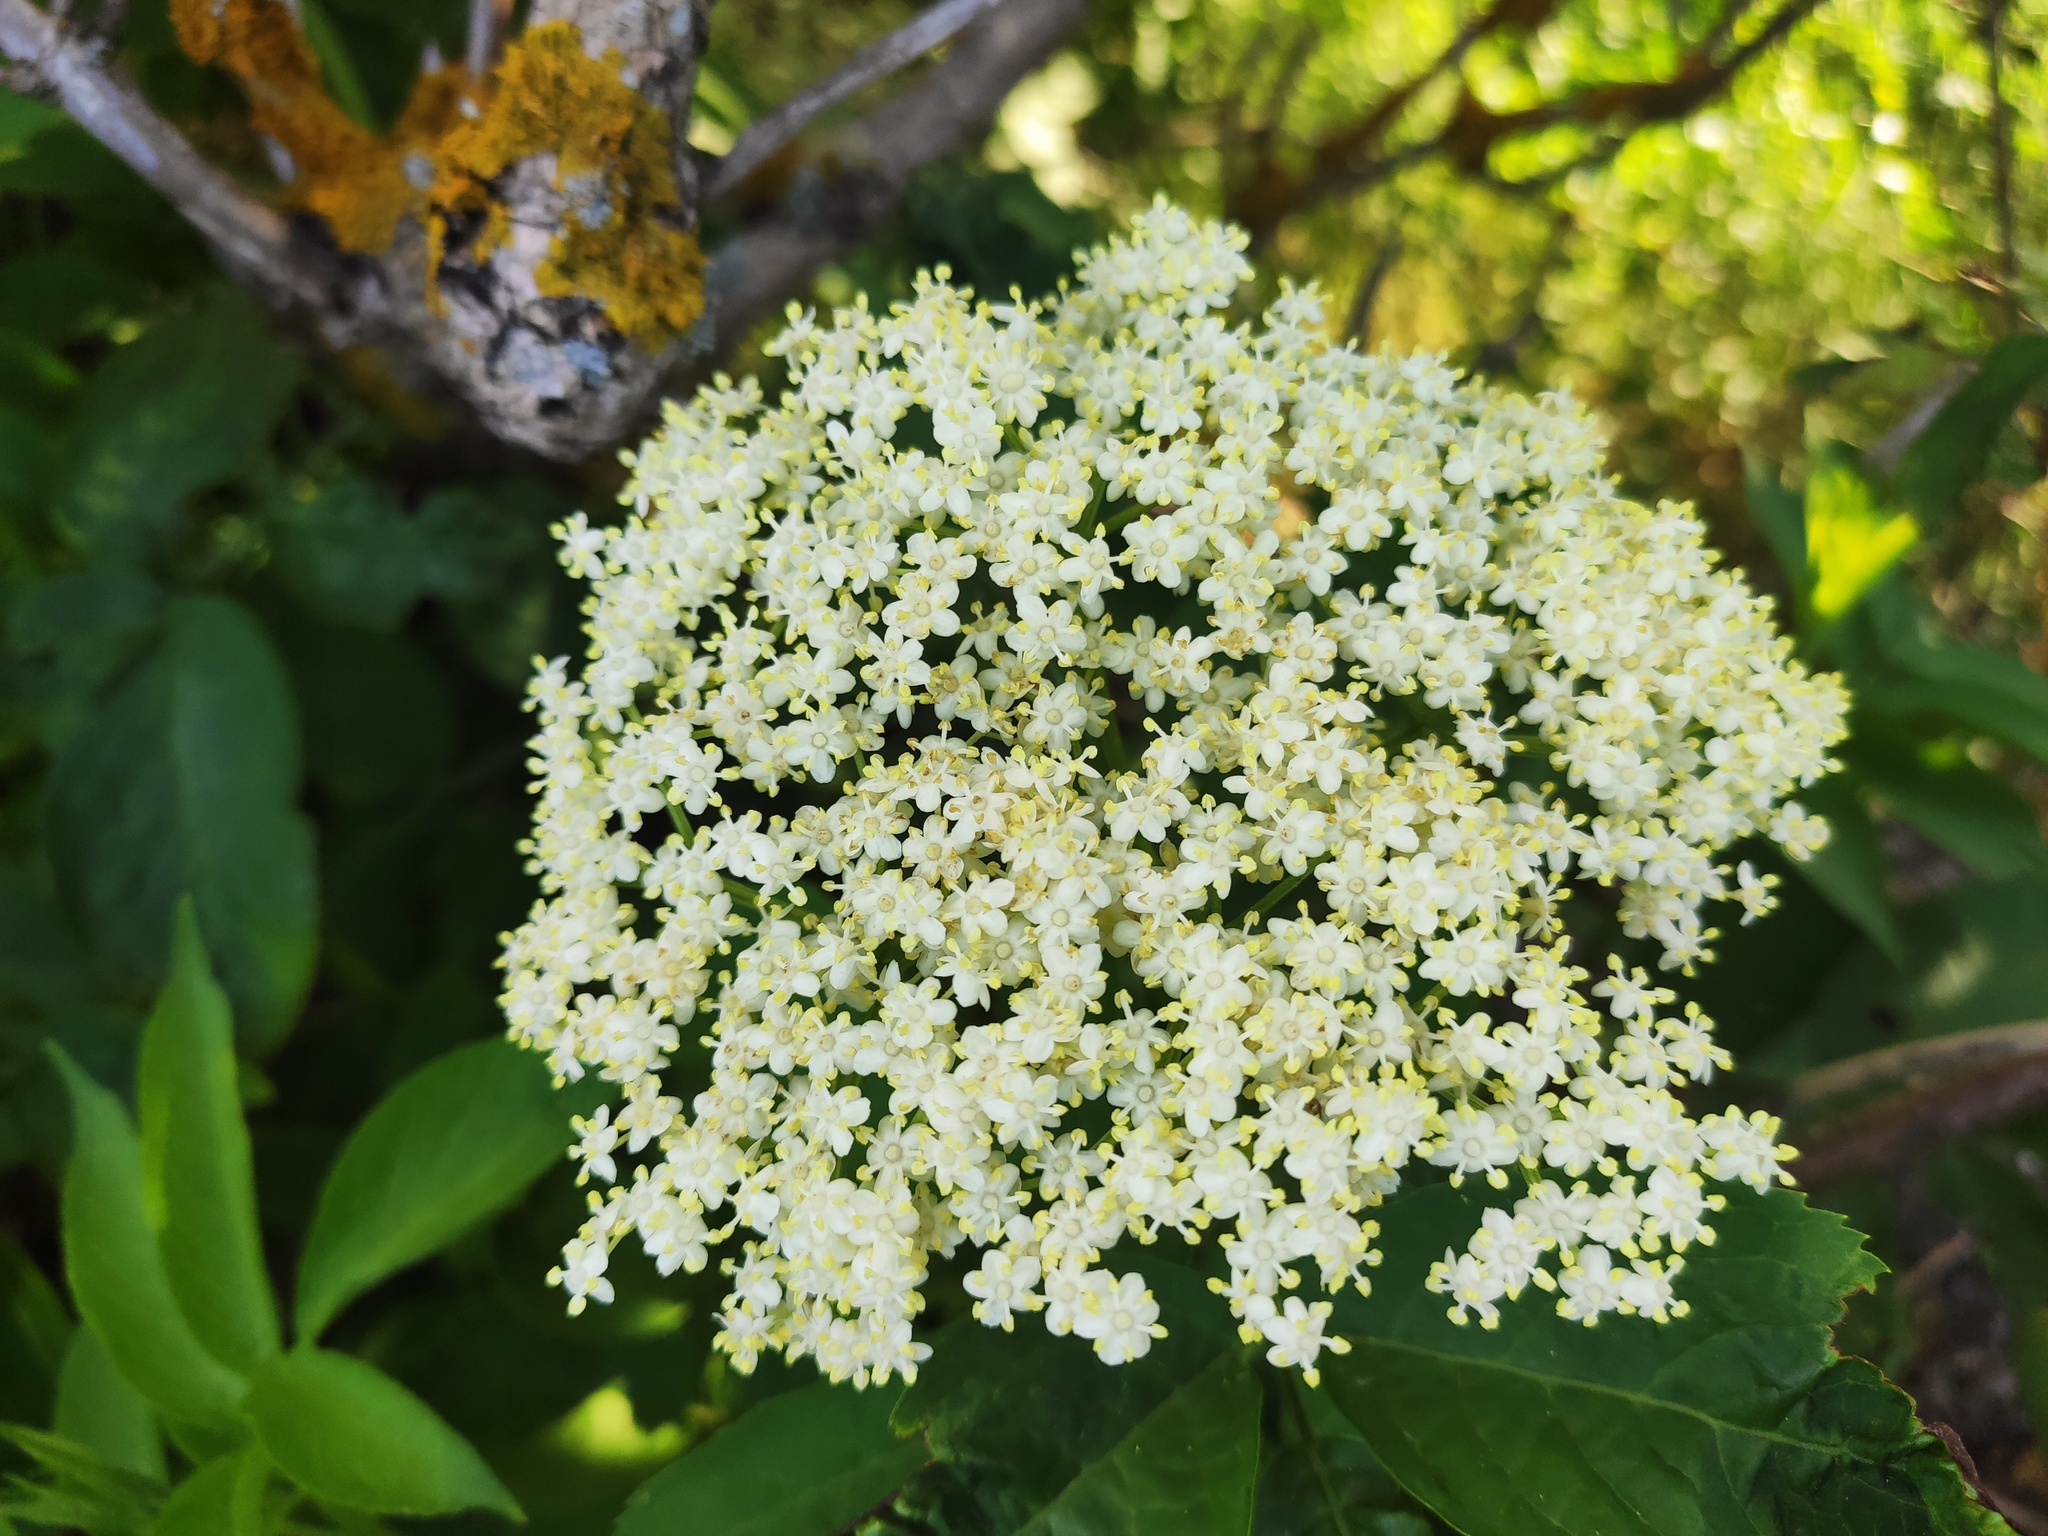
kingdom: Plantae
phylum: Tracheophyta
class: Magnoliopsida
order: Dipsacales
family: Viburnaceae
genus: Sambucus
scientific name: Sambucus nigra
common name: Elder
